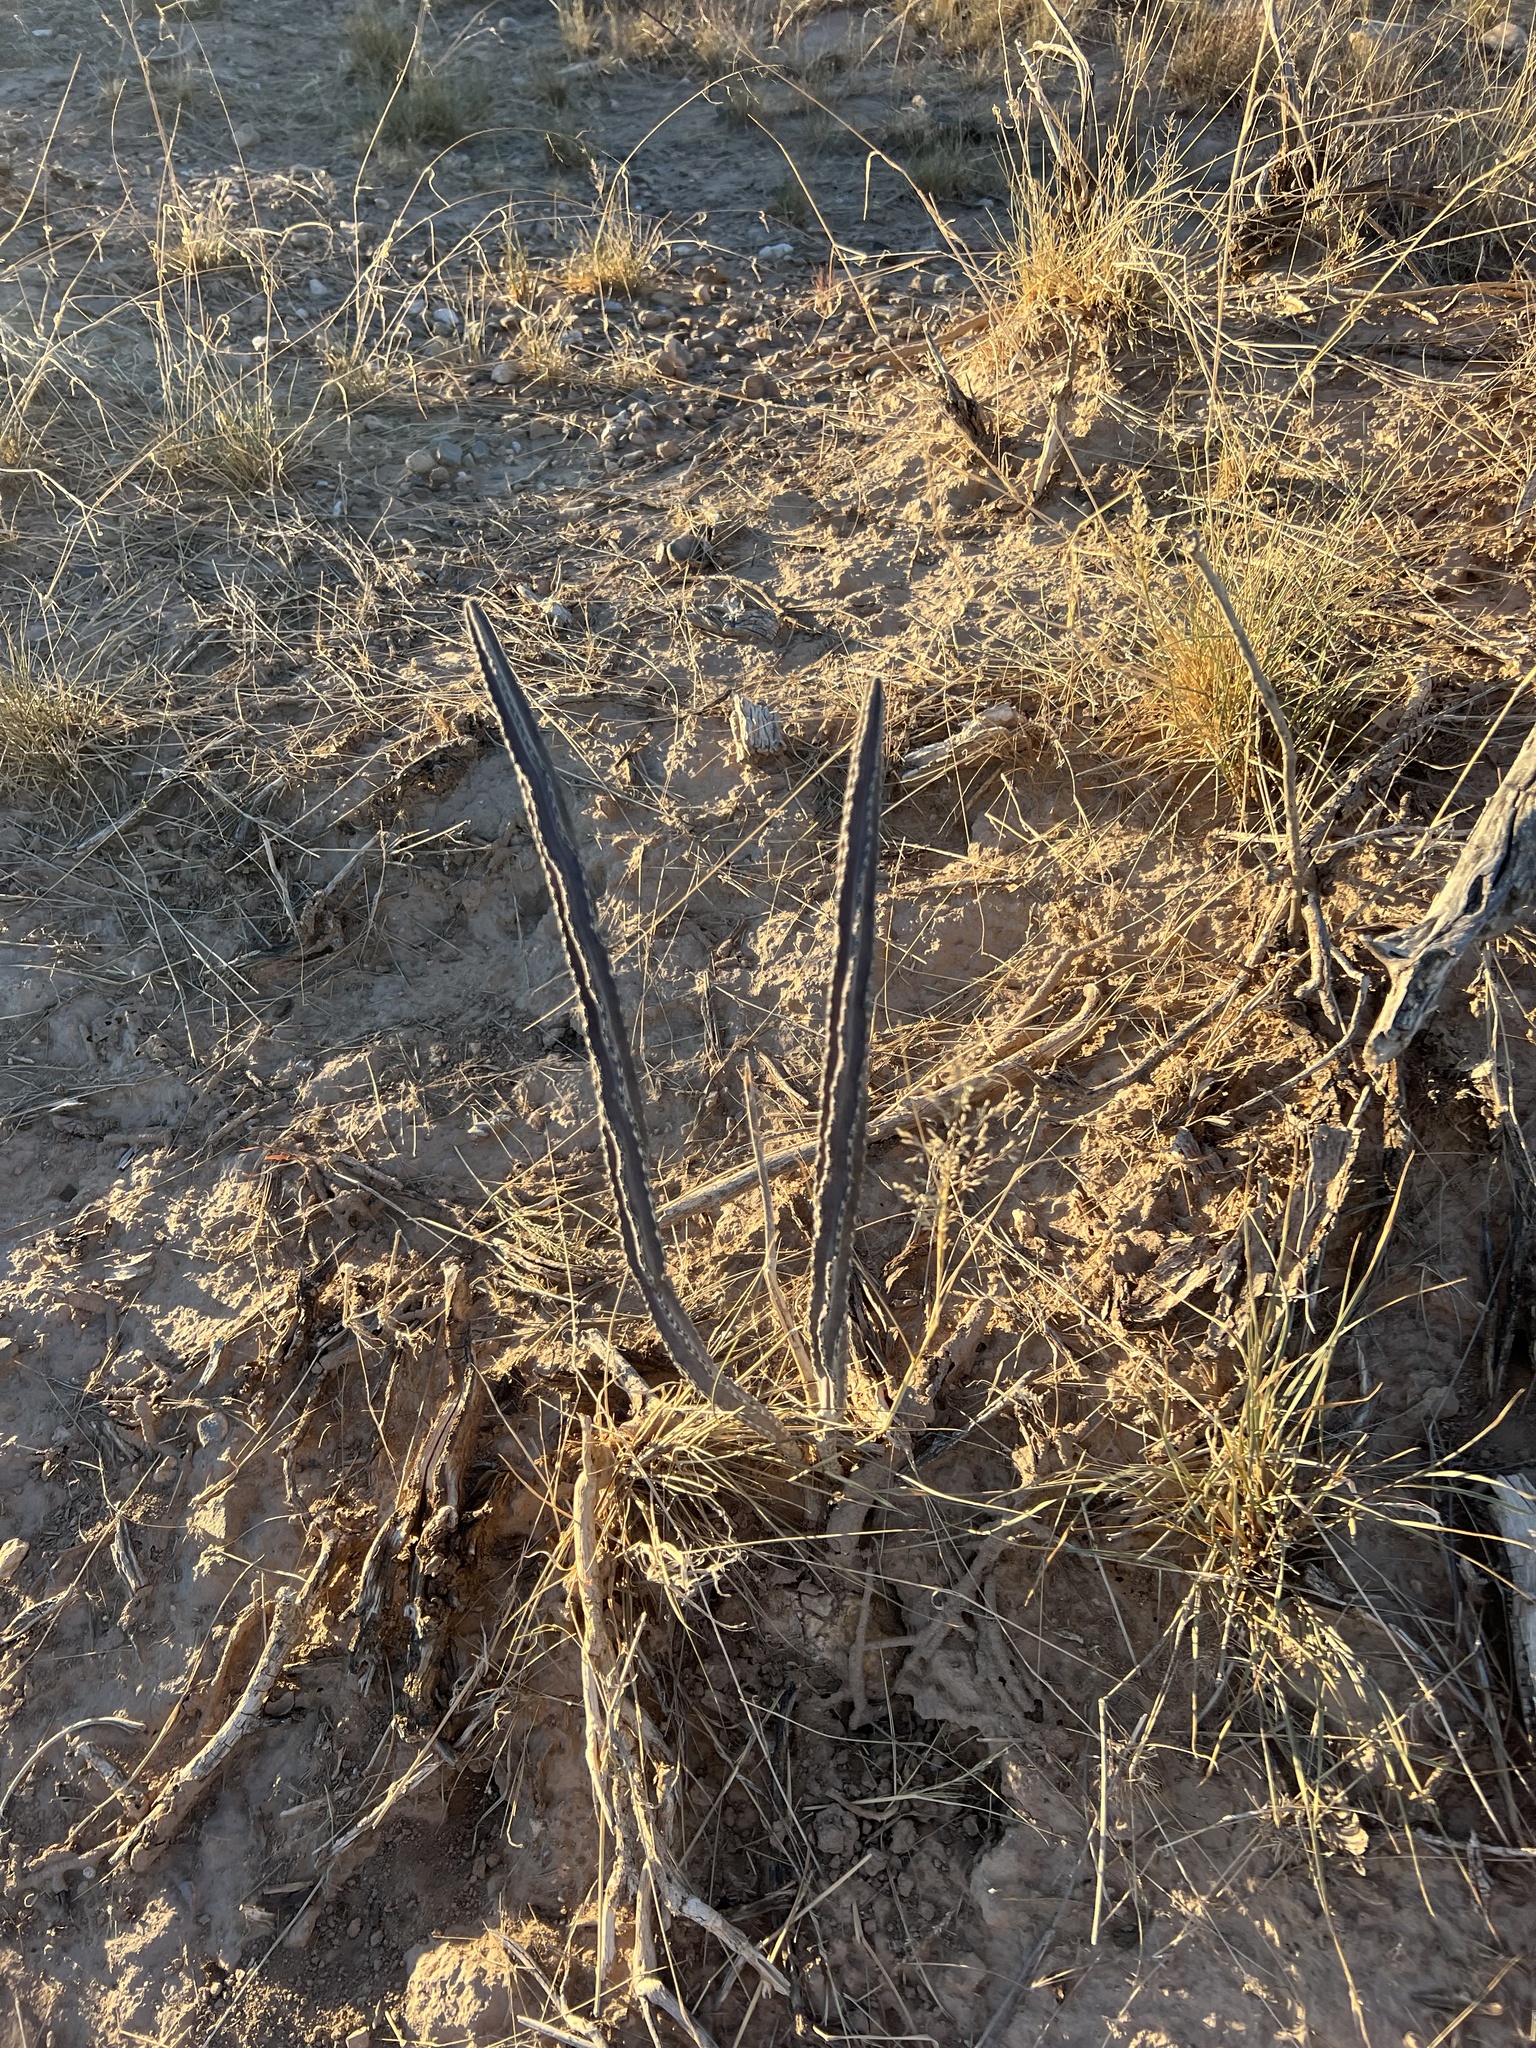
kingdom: Plantae
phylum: Tracheophyta
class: Magnoliopsida
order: Caryophyllales
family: Cactaceae
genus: Peniocereus
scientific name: Peniocereus greggii
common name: Desert night-blooming cereus
